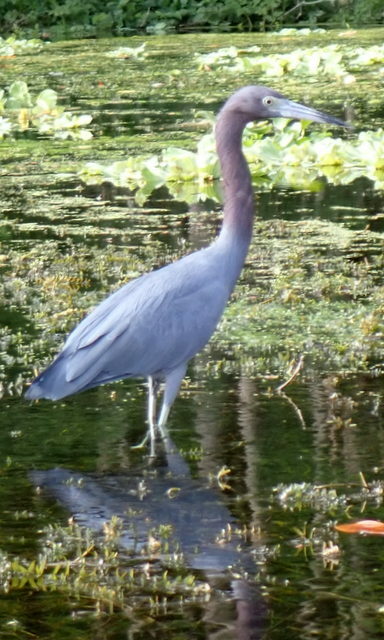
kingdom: Animalia
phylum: Chordata
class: Aves
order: Pelecaniformes
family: Ardeidae
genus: Egretta
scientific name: Egretta caerulea
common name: Little blue heron
